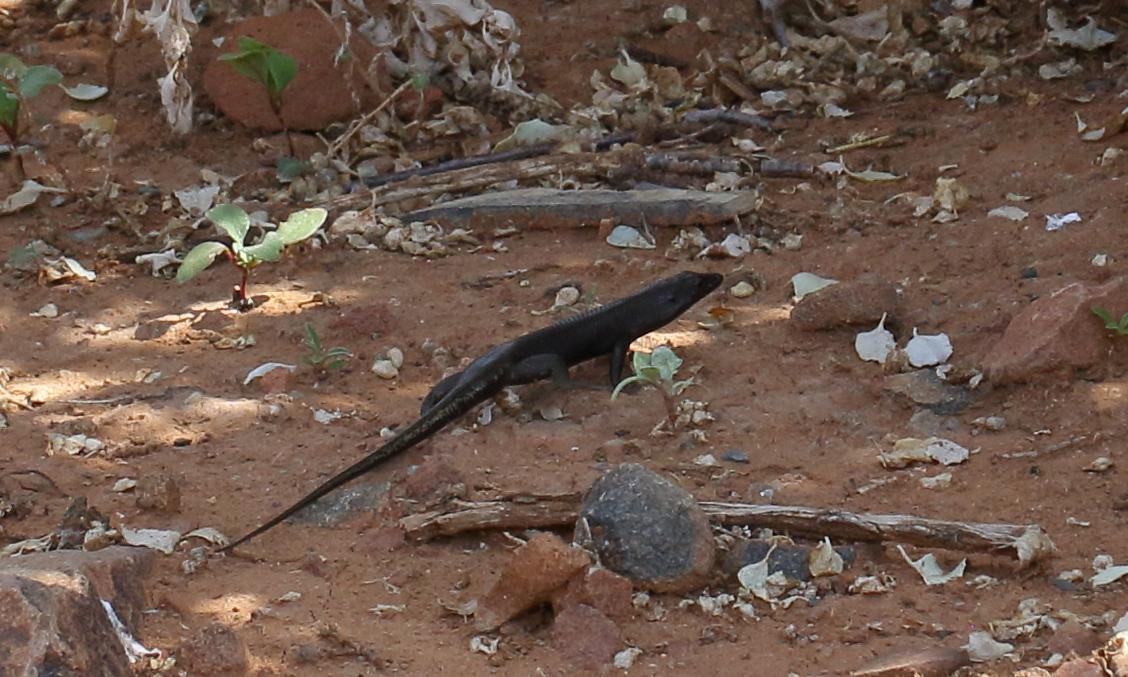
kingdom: Animalia
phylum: Chordata
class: Squamata
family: Scincidae
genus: Trachylepis
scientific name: Trachylepis sulcata
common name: Western rock skink
